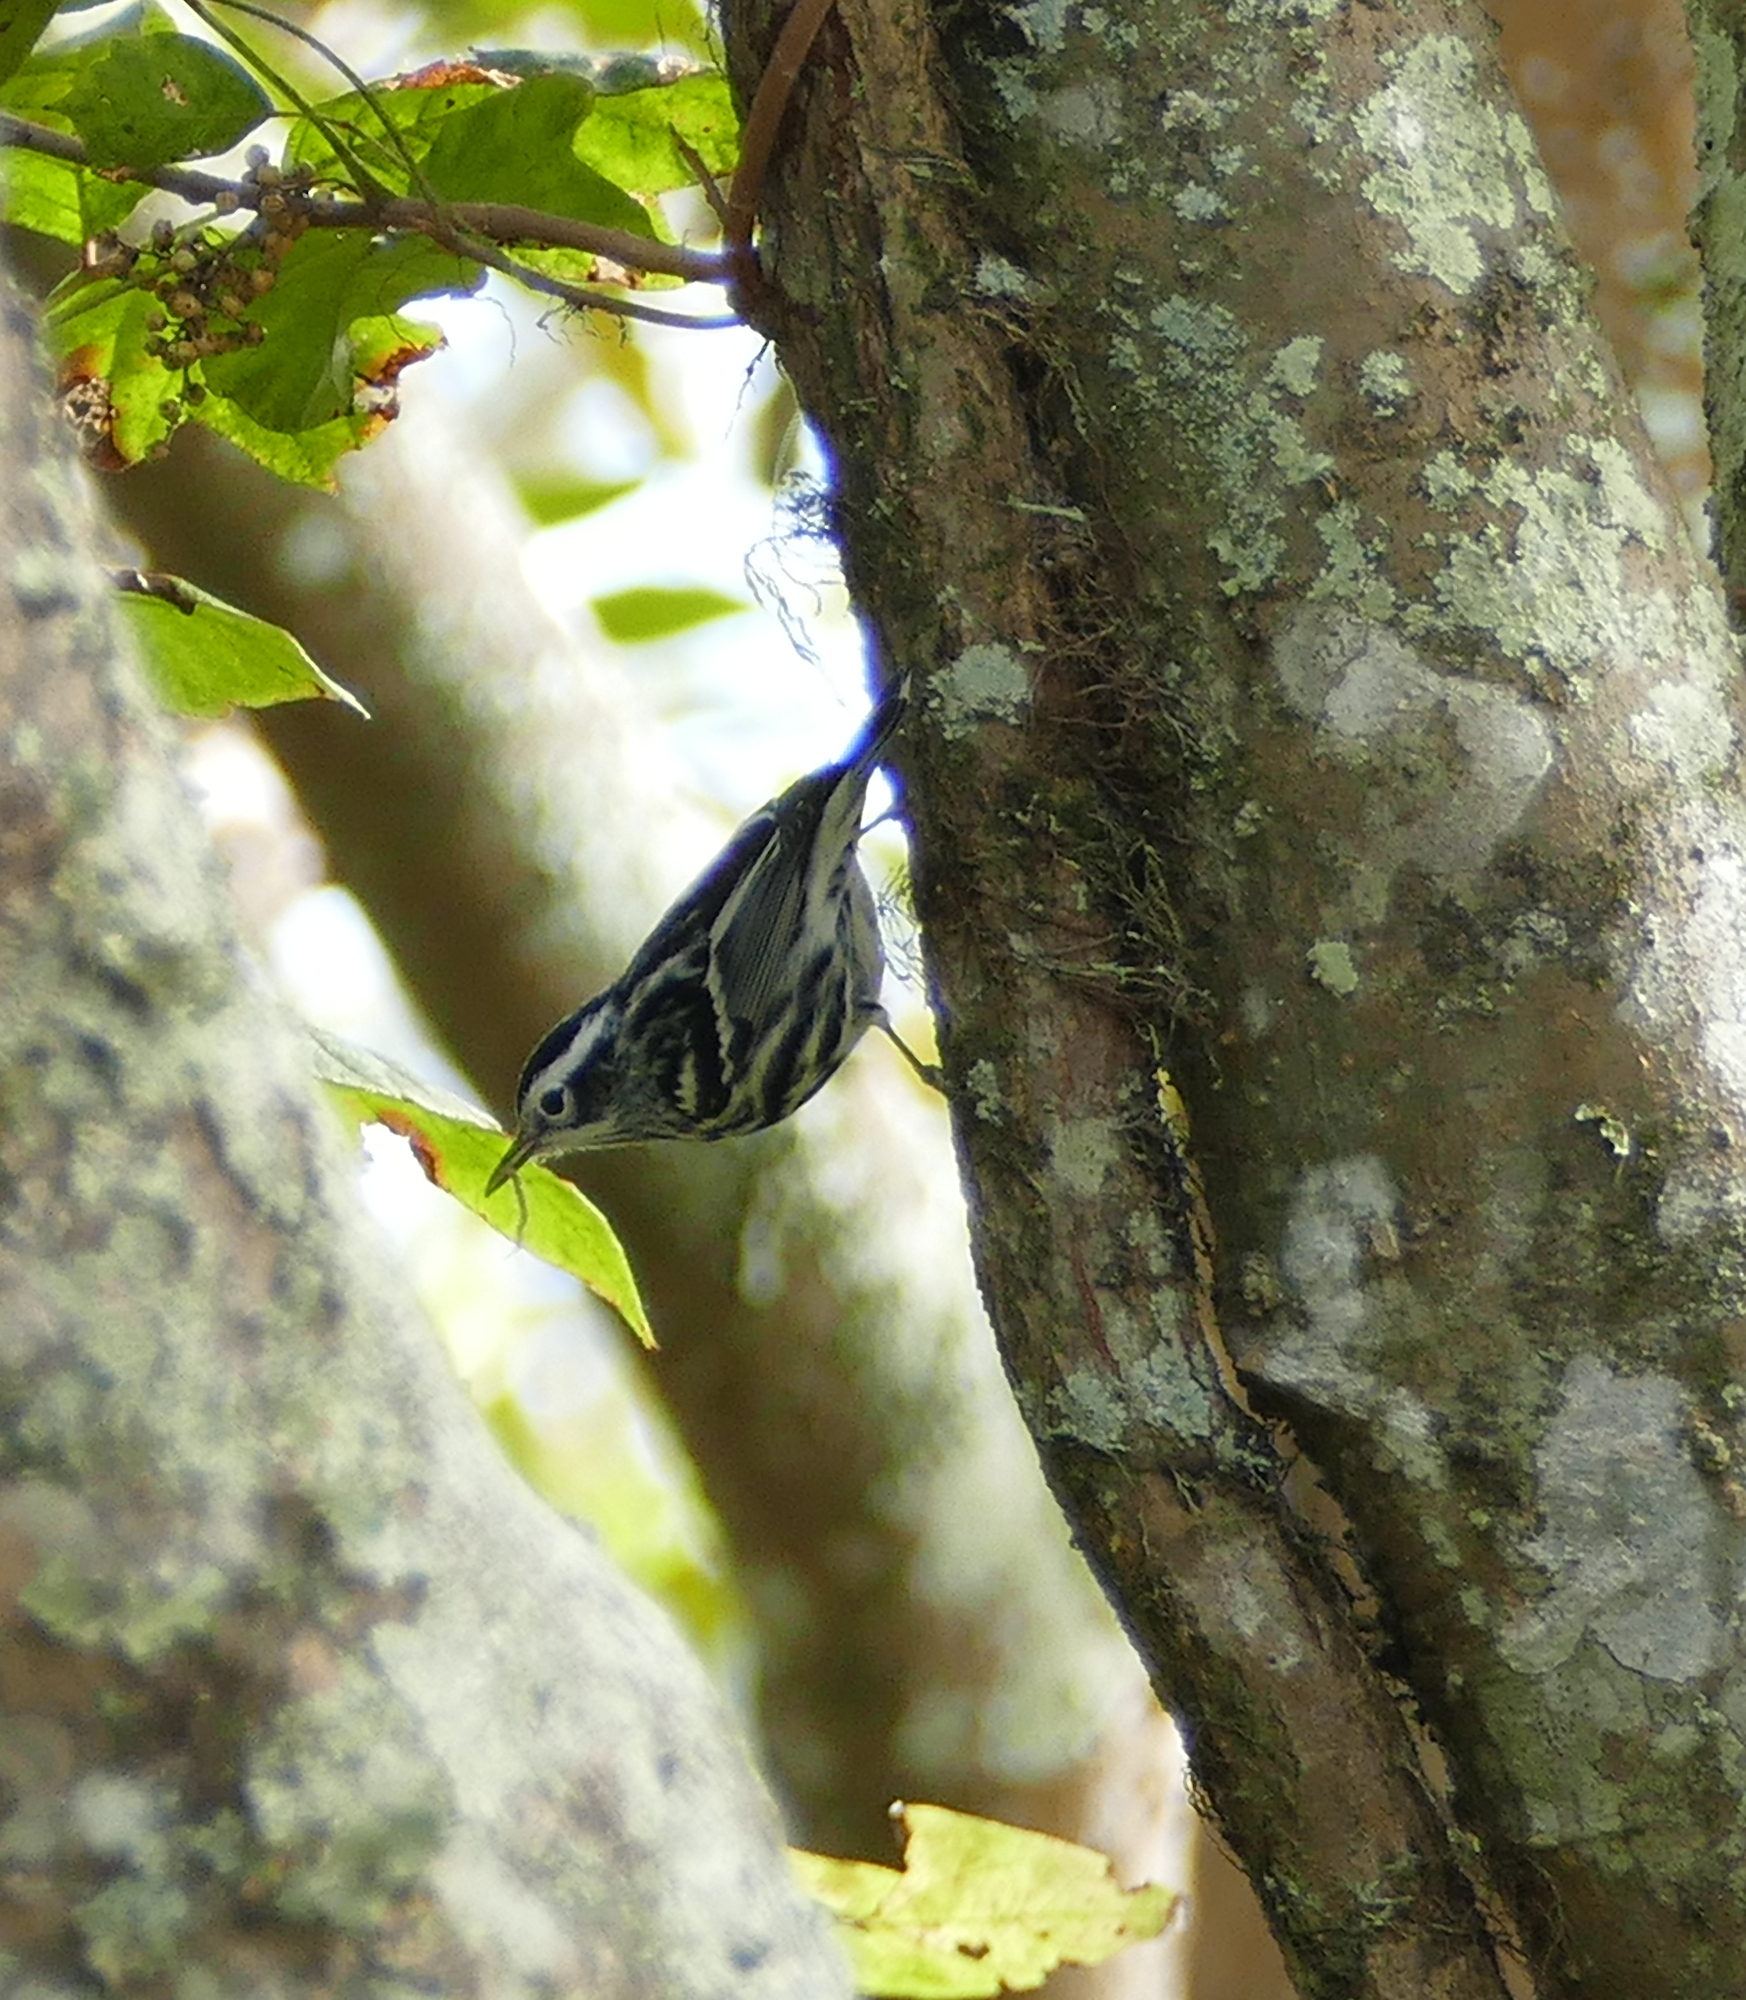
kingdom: Animalia
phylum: Chordata
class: Aves
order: Passeriformes
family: Parulidae
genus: Mniotilta
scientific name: Mniotilta varia
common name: Black-and-white warbler
